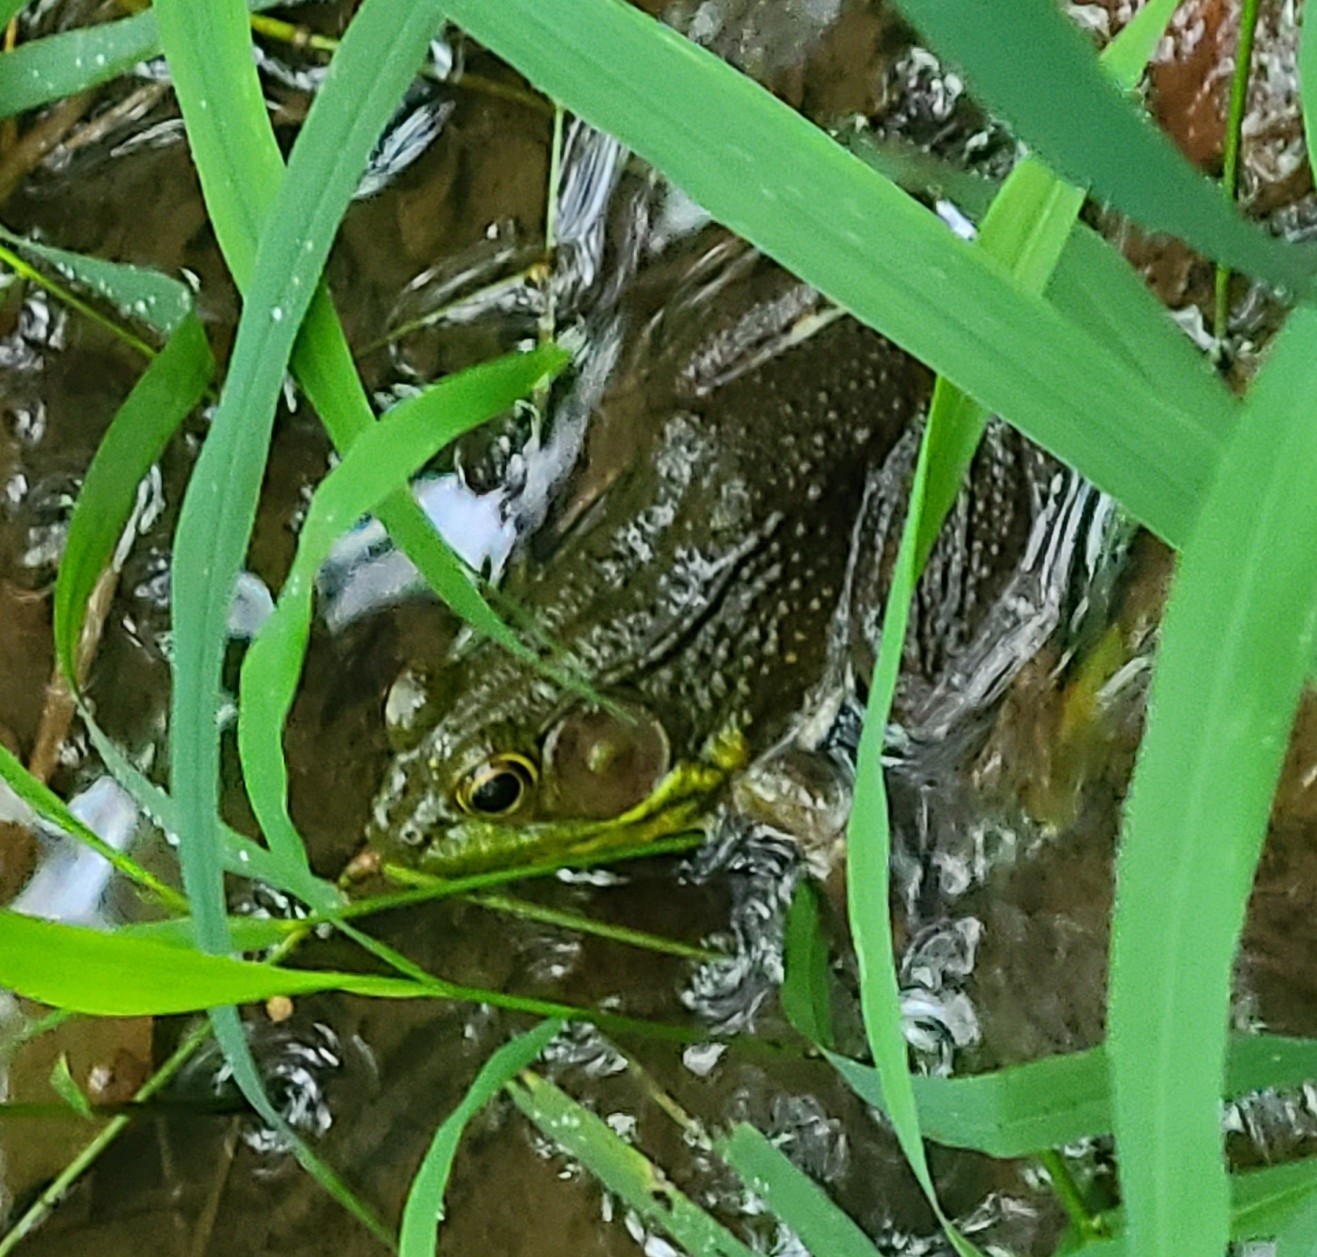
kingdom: Animalia
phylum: Chordata
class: Amphibia
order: Anura
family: Ranidae
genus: Lithobates
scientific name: Lithobates clamitans
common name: Green frog
